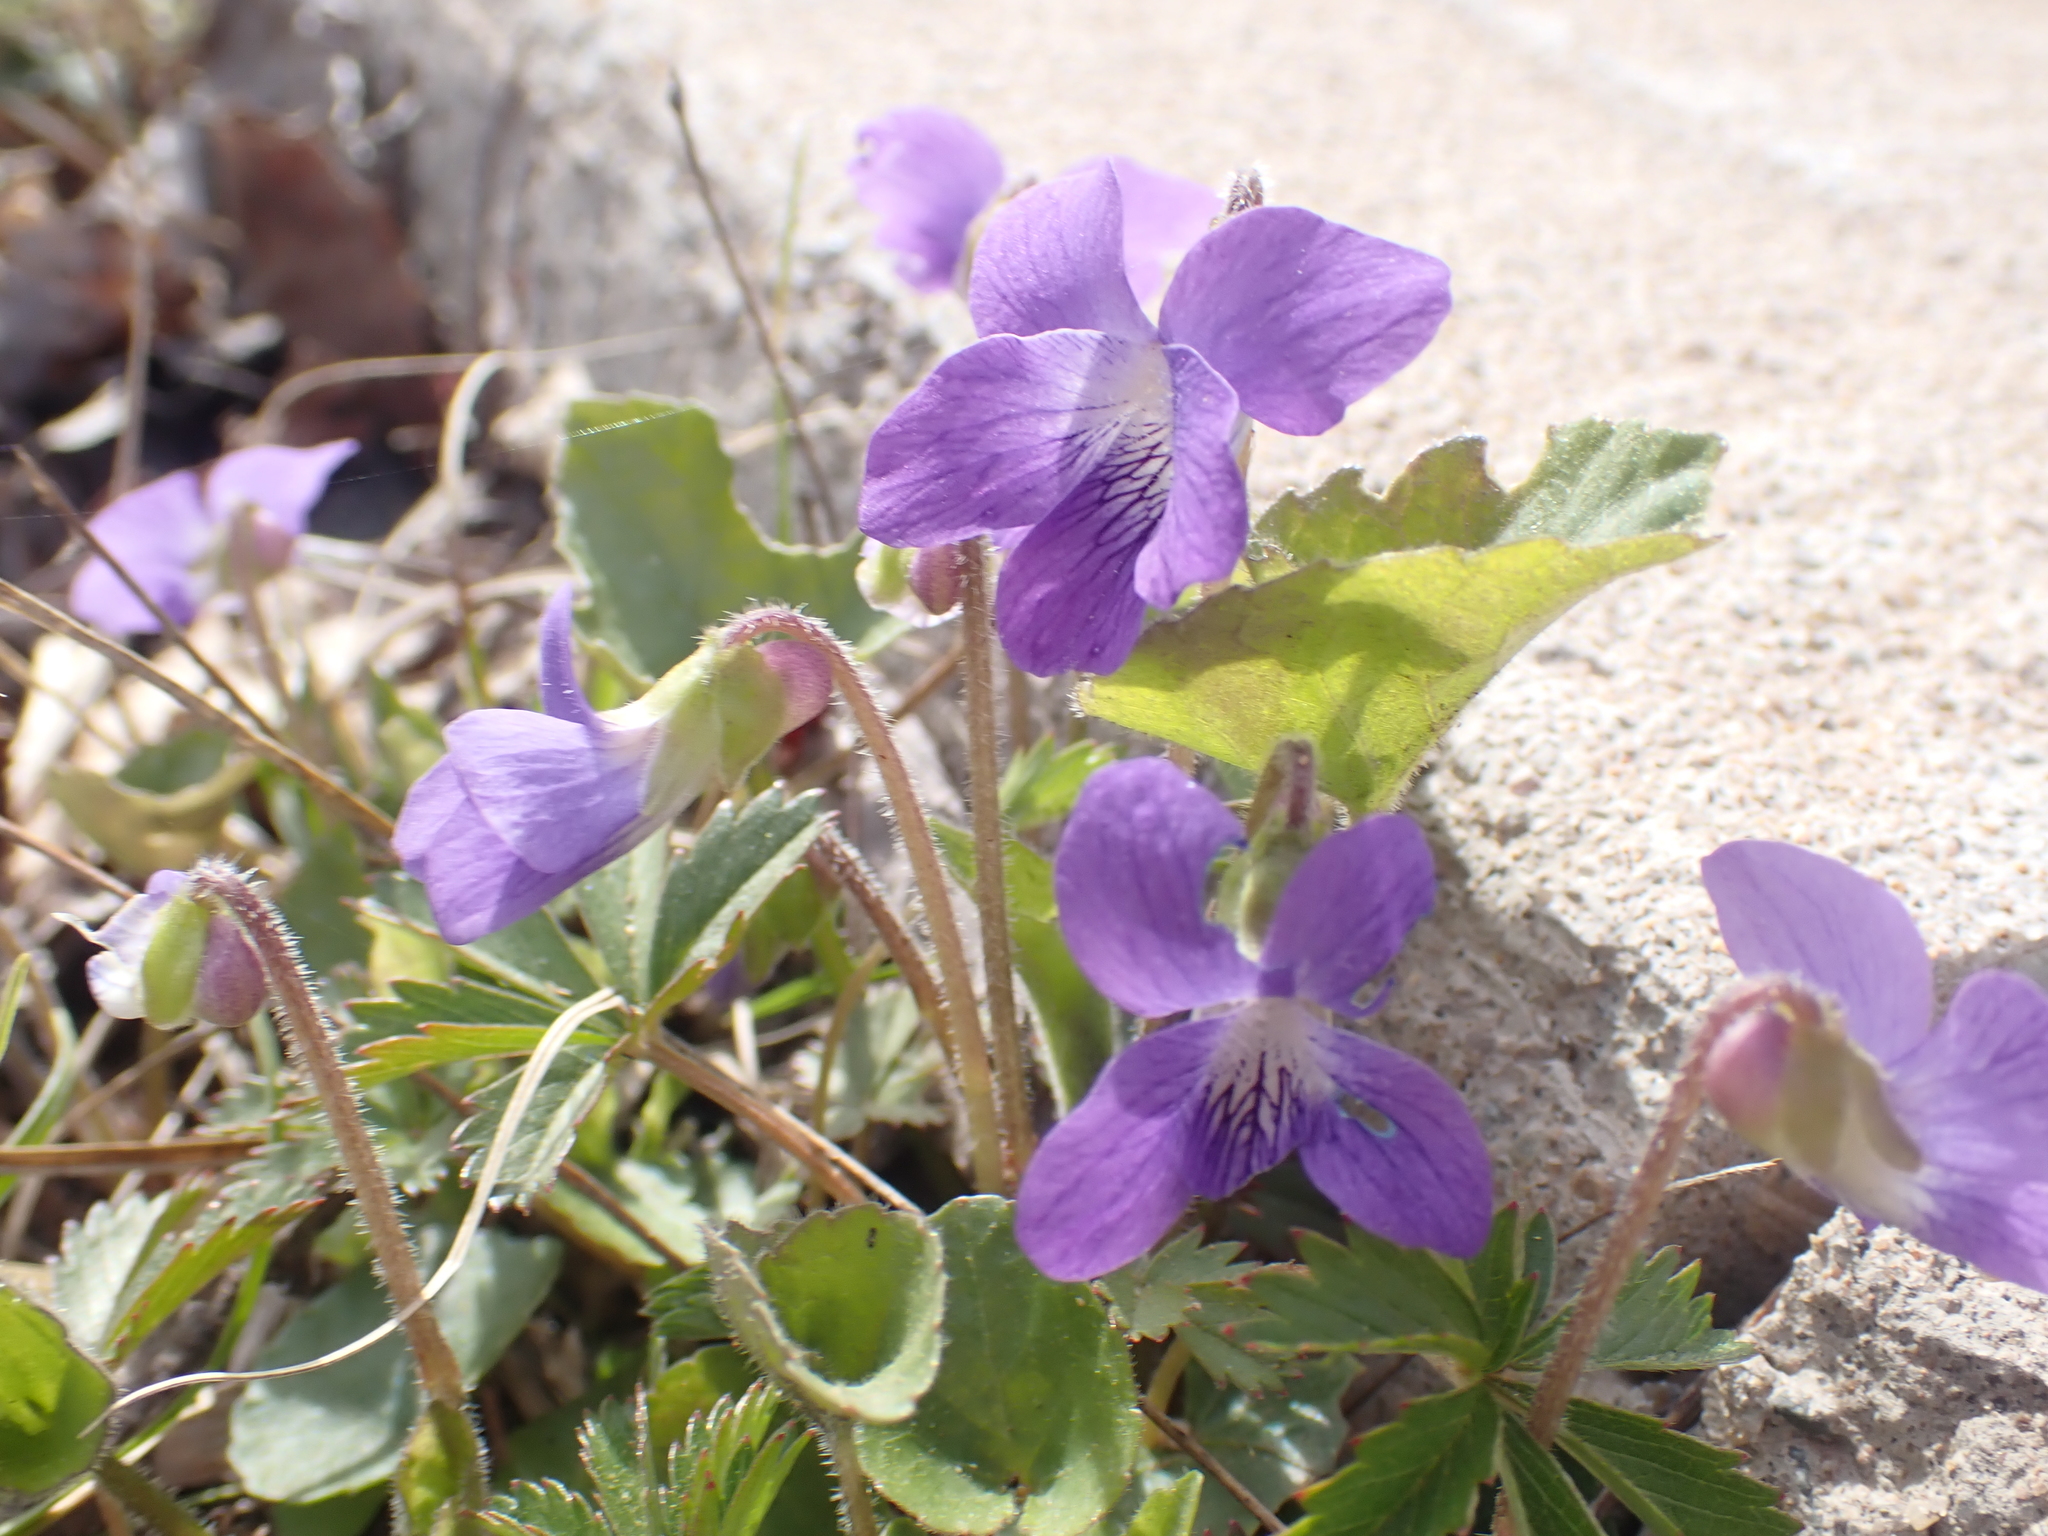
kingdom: Plantae
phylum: Tracheophyta
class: Magnoliopsida
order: Malpighiales
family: Violaceae
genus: Viola
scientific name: Viola sororia
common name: Dooryard violet
